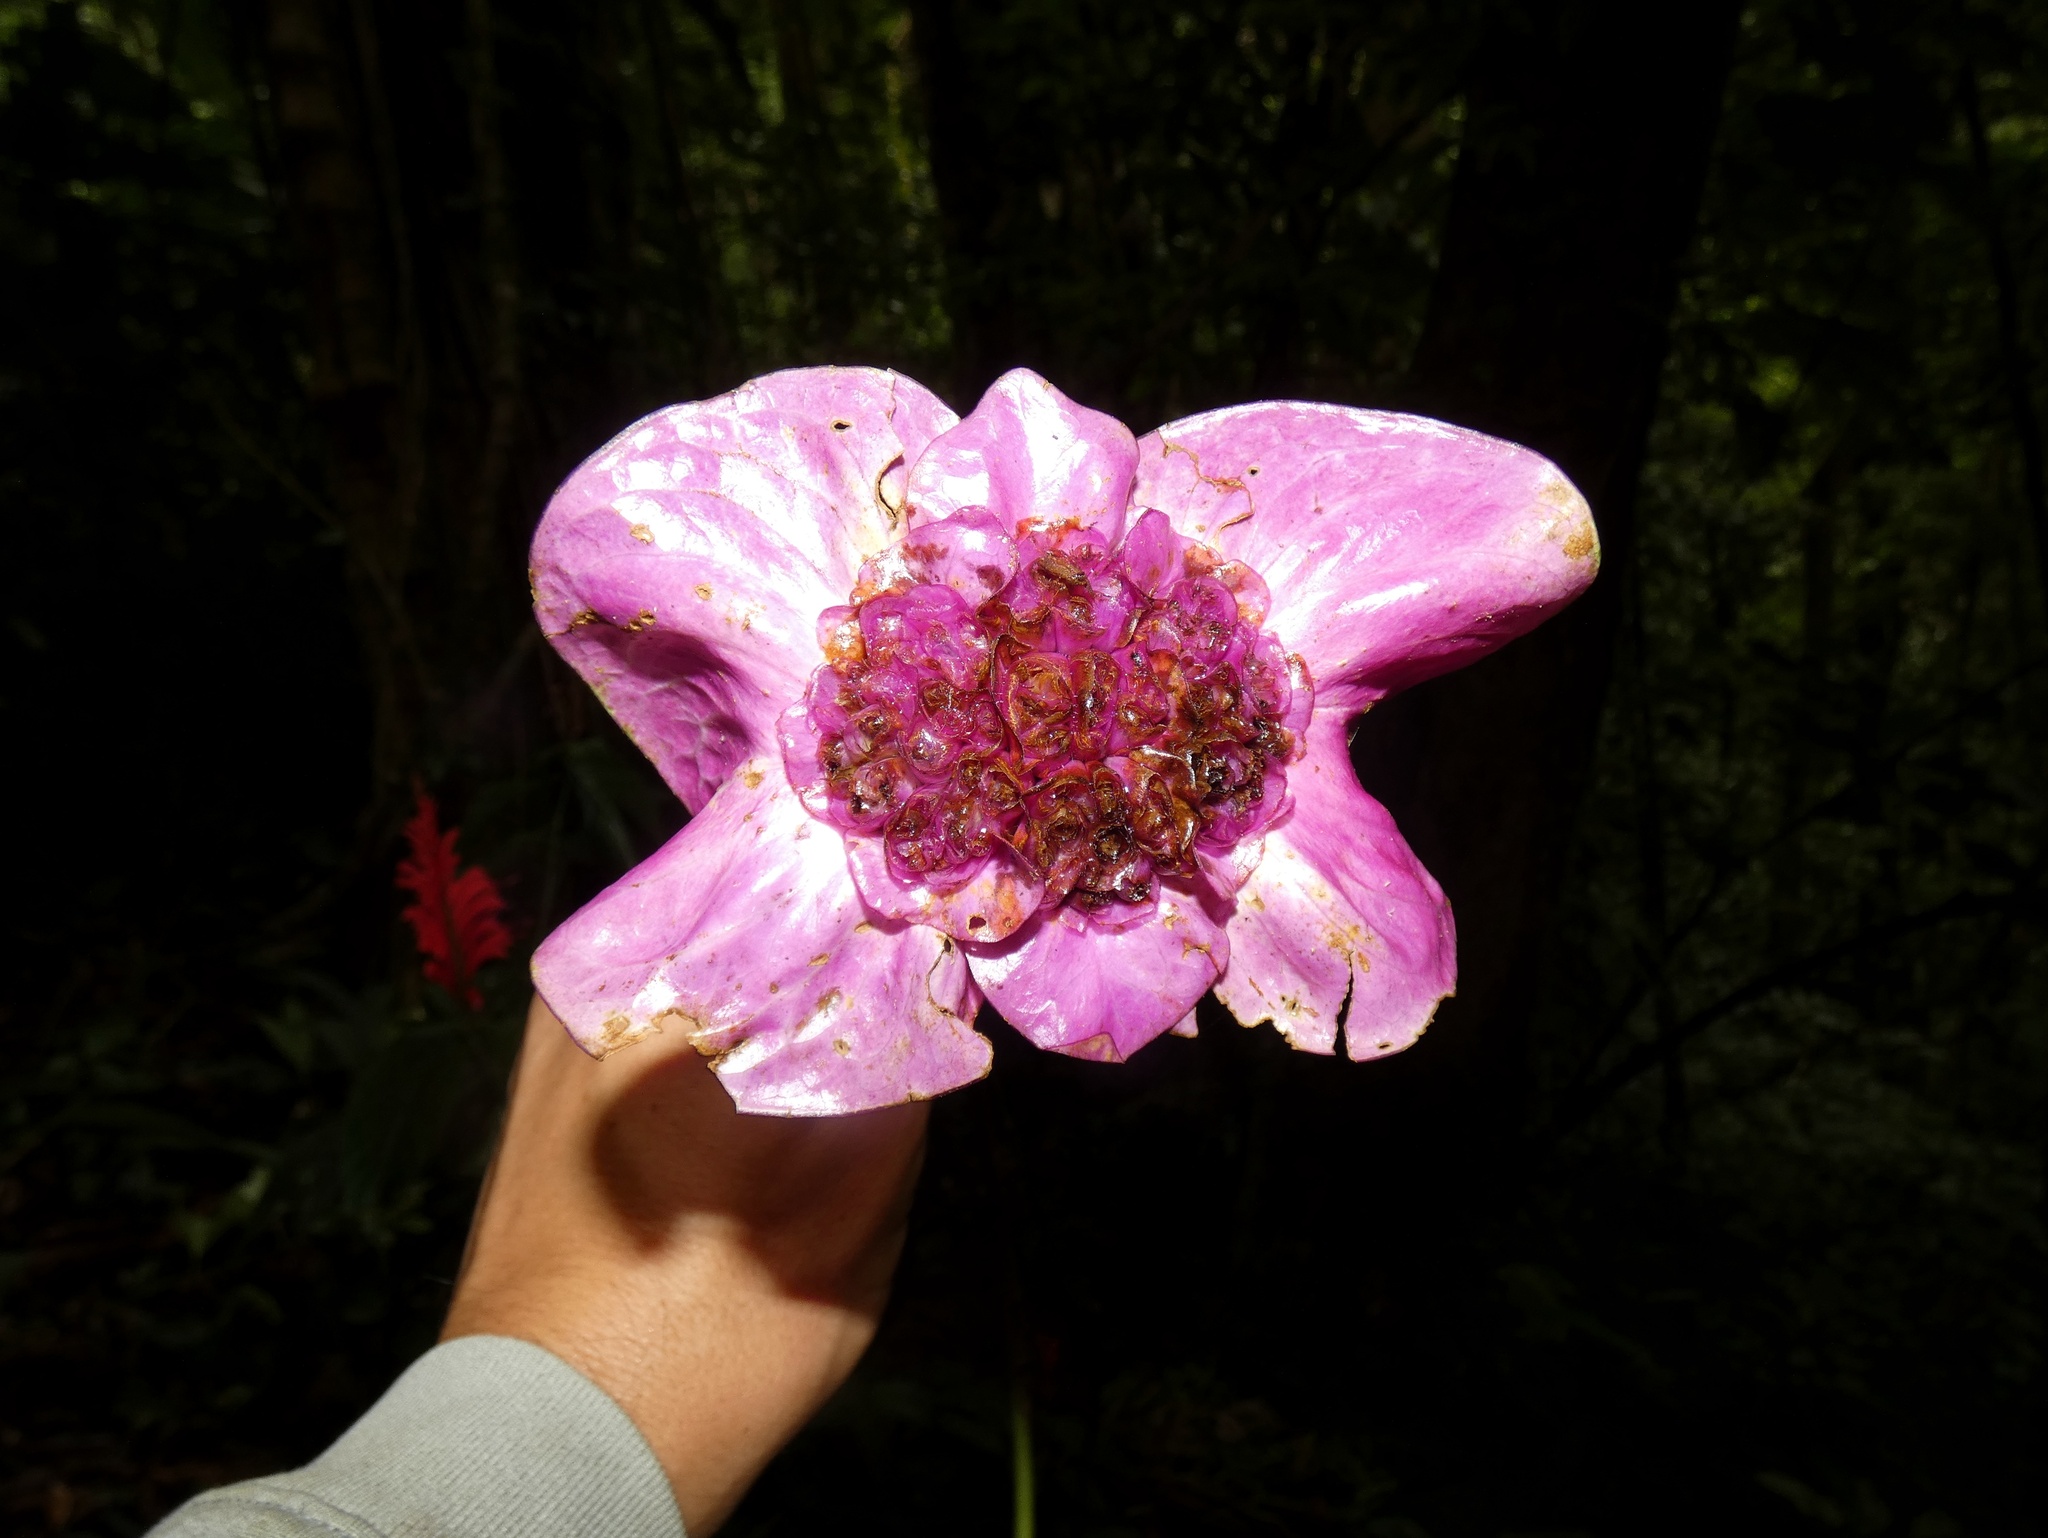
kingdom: Plantae
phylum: Tracheophyta
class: Magnoliopsida
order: Gentianales
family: Rubiaceae
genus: Palicourea
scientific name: Palicourea correae
